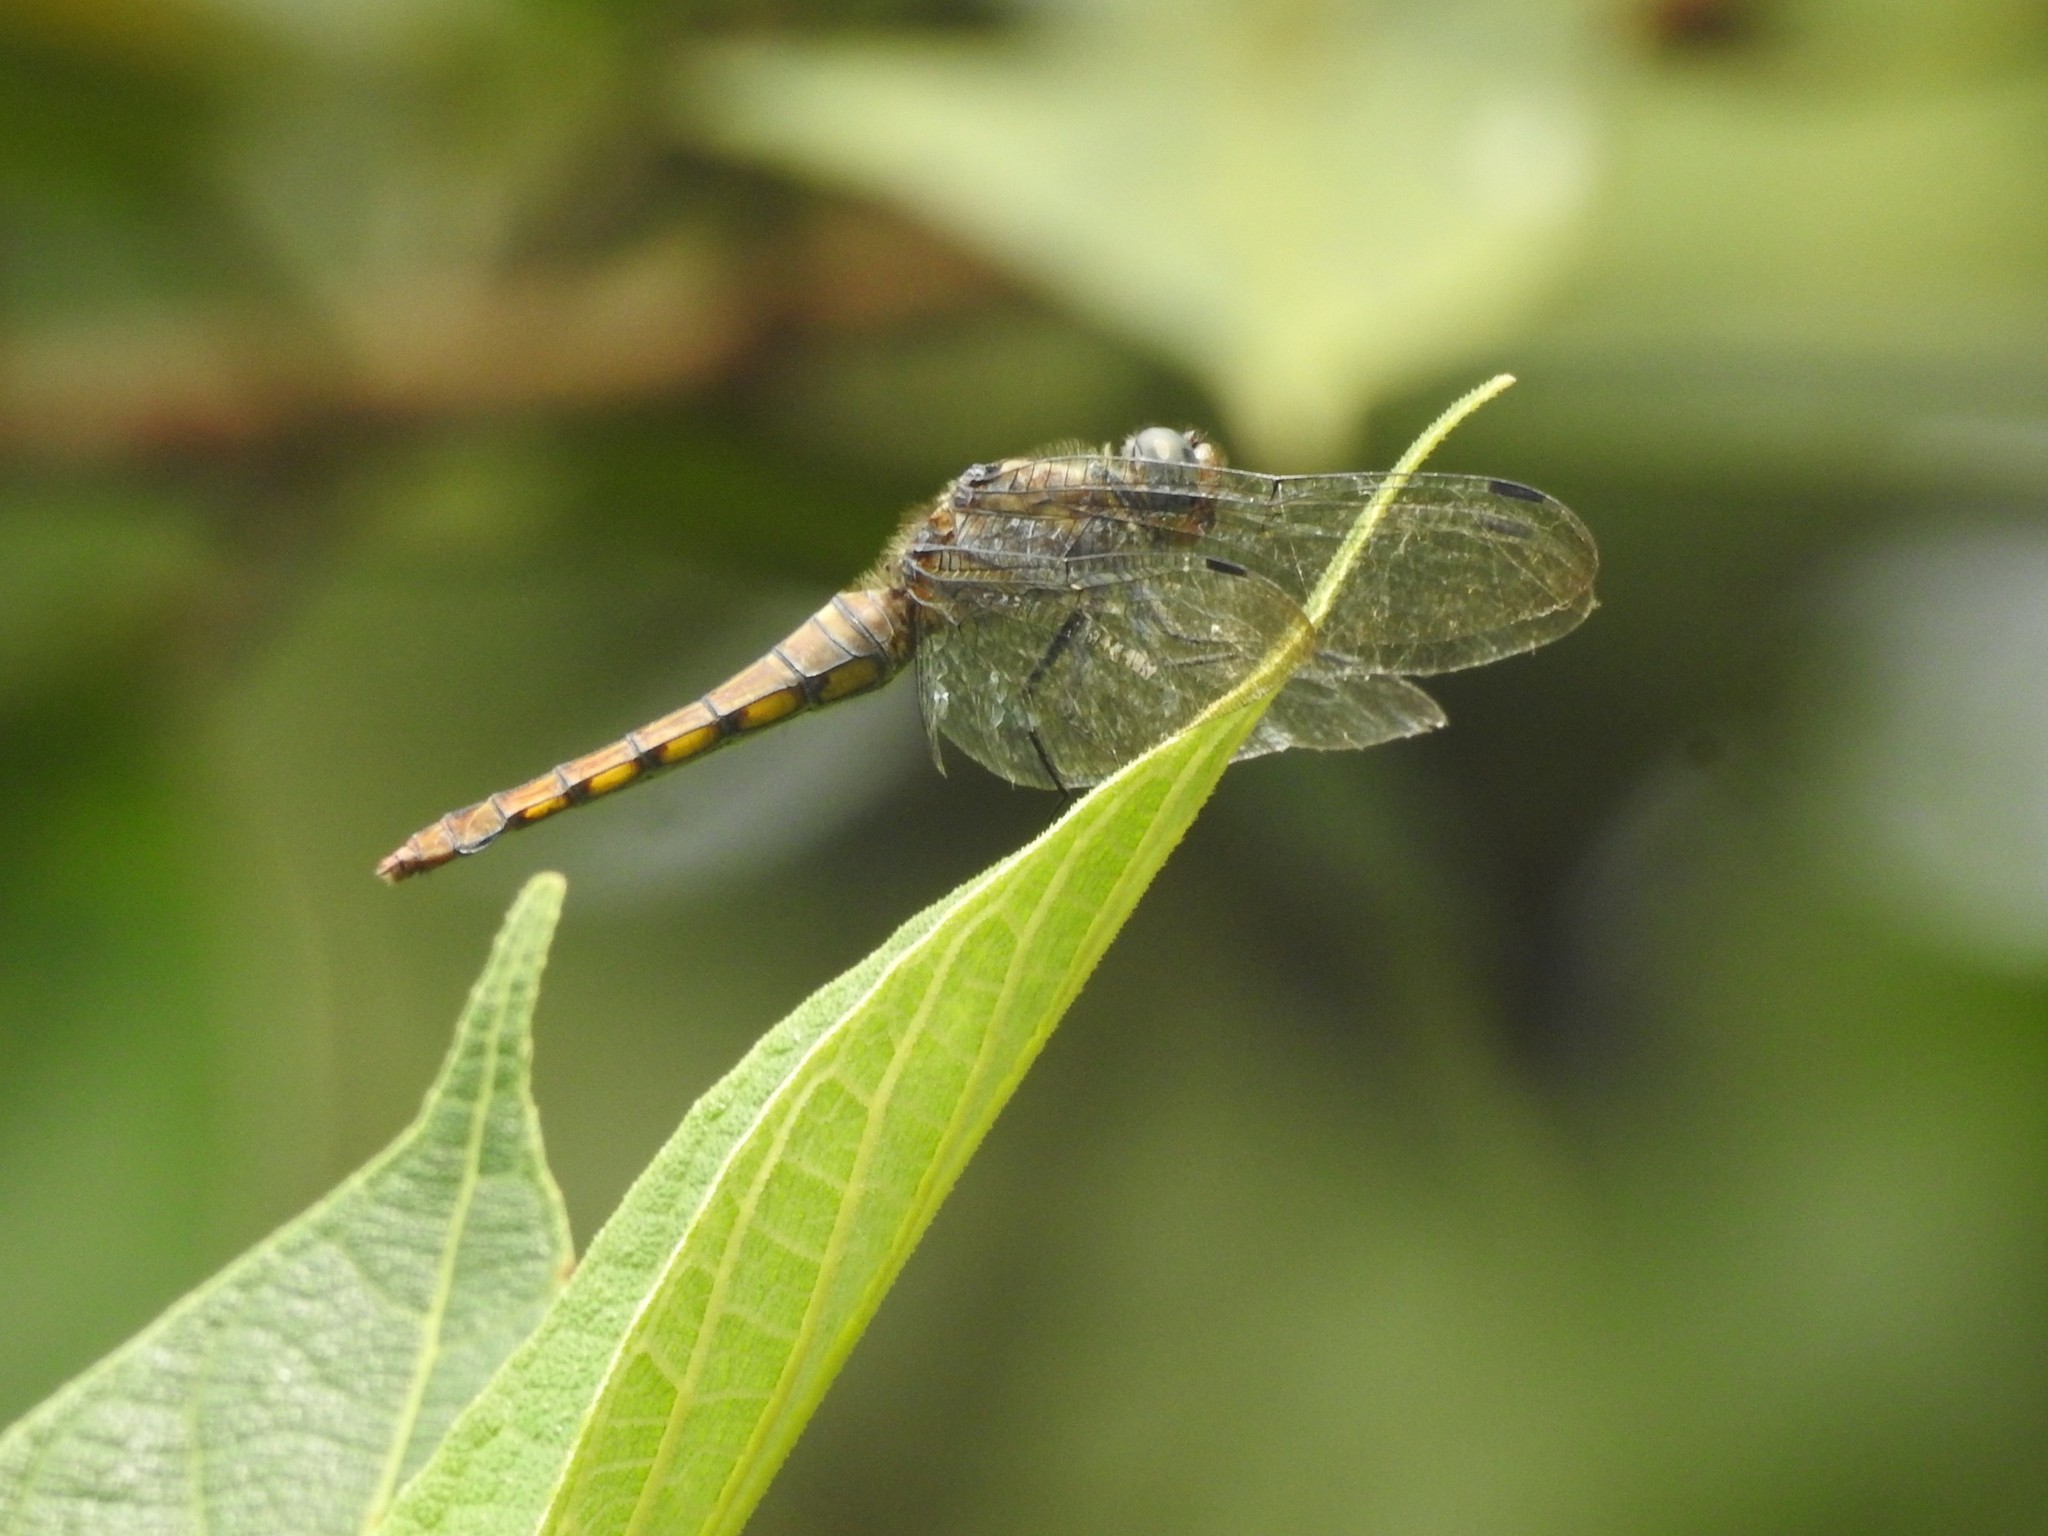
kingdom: Animalia
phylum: Arthropoda
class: Insecta
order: Odonata
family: Libellulidae
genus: Orthetrum
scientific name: Orthetrum pruinosum
